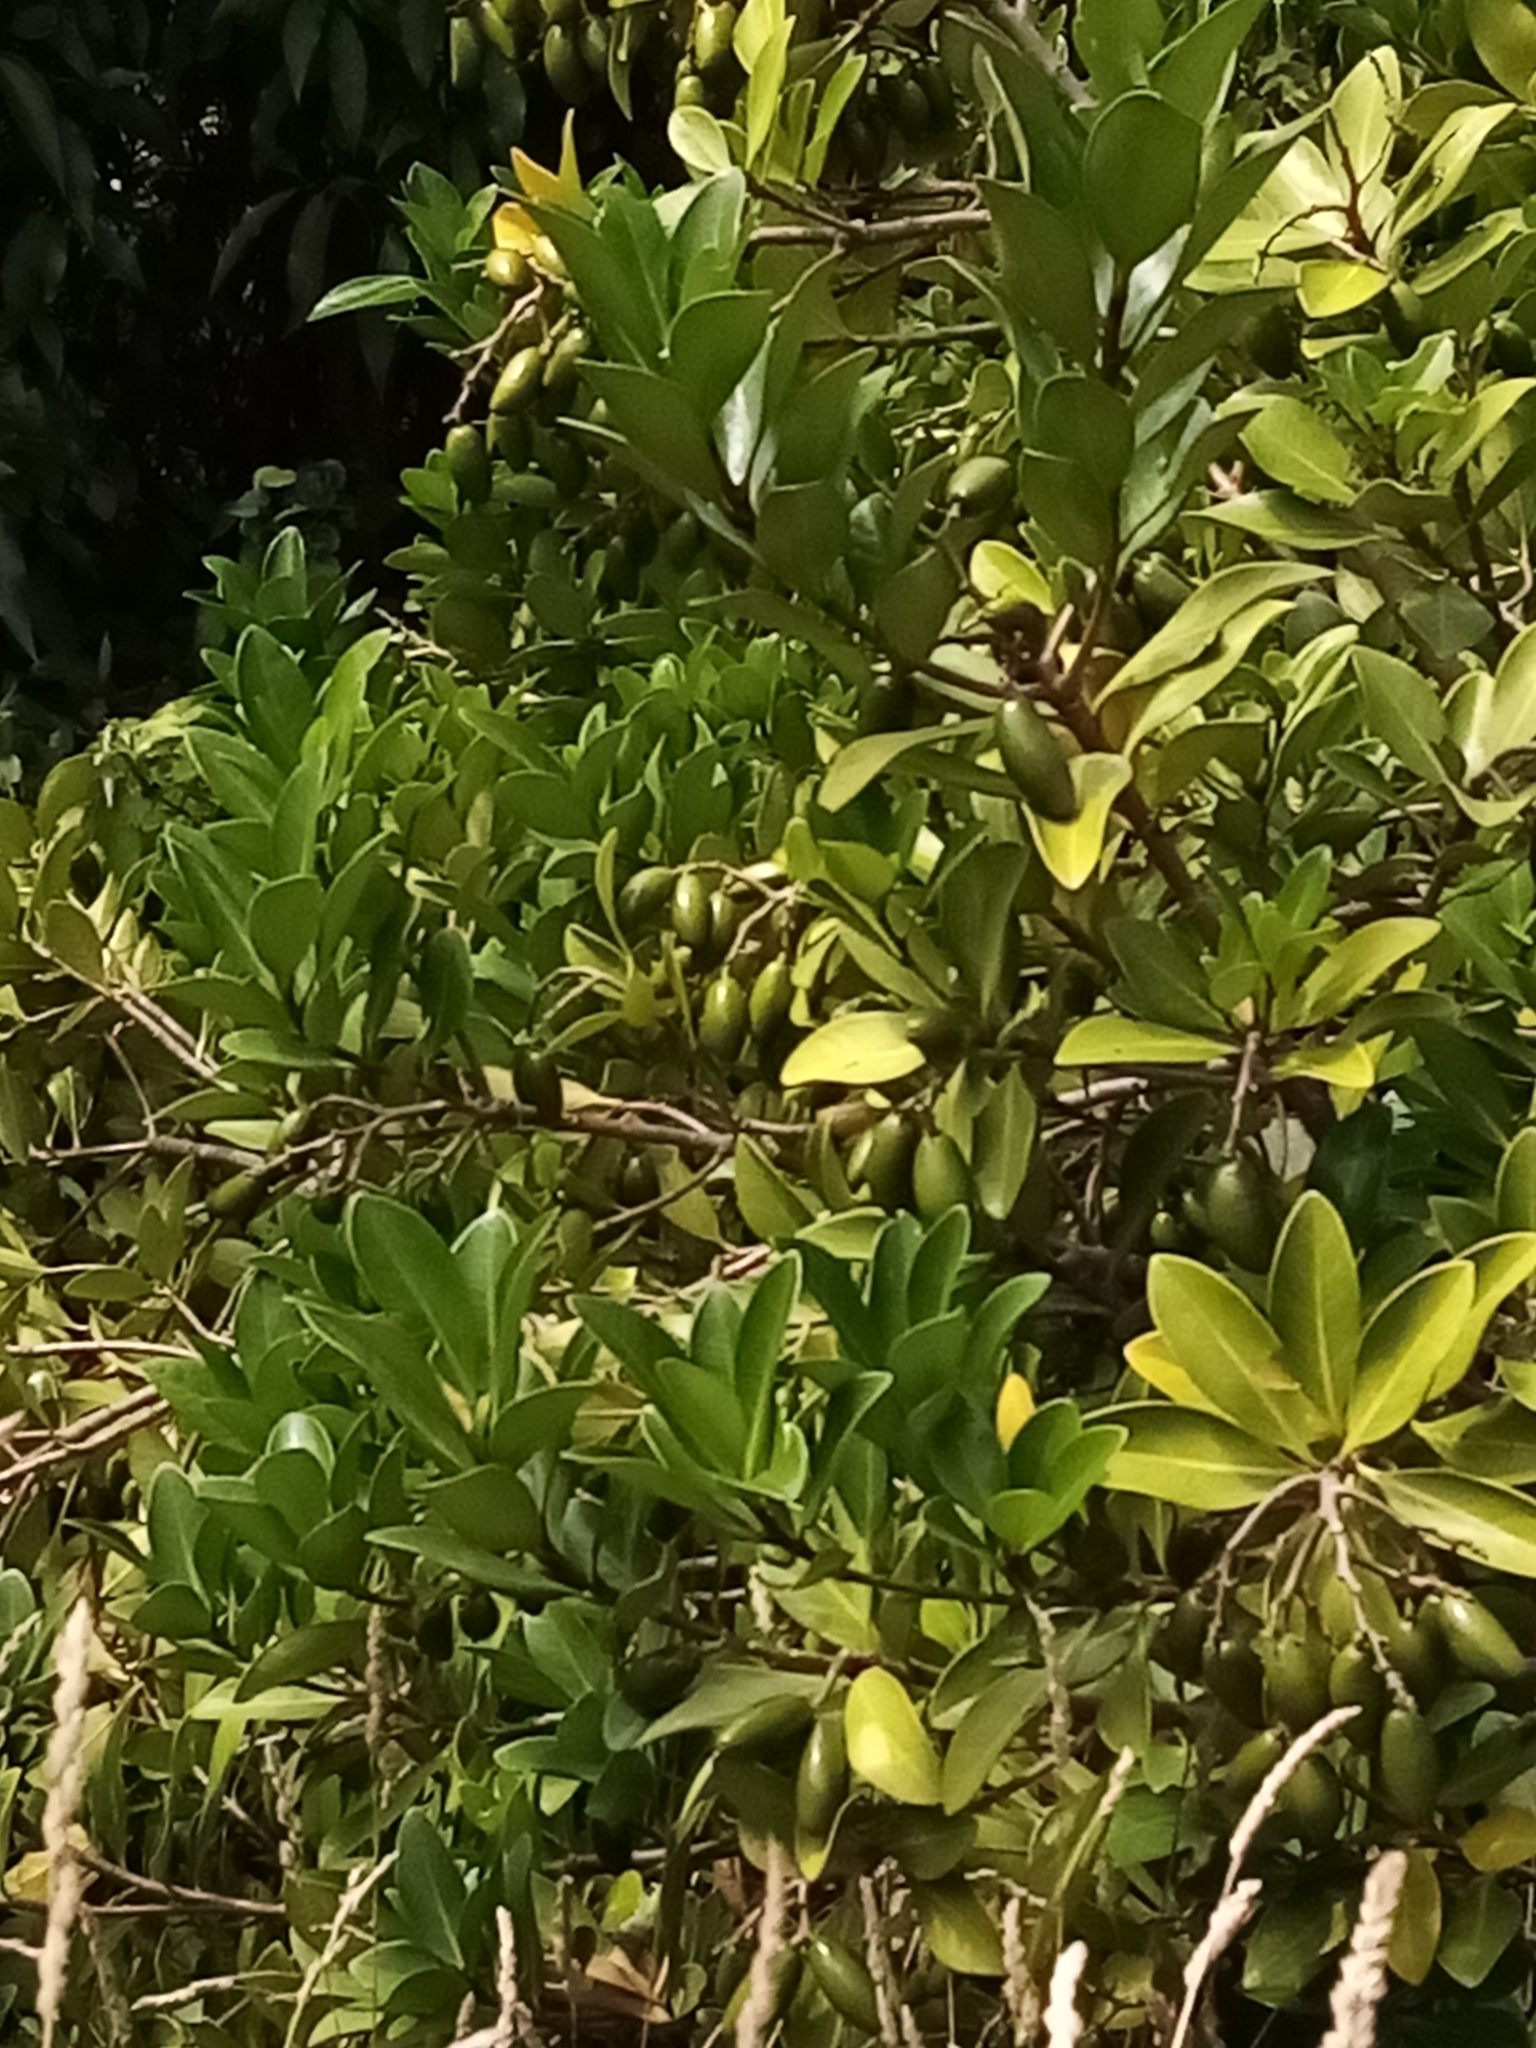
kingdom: Plantae
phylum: Tracheophyta
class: Magnoliopsida
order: Cucurbitales
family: Corynocarpaceae
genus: Corynocarpus
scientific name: Corynocarpus laevigatus
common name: New zealand laurel
